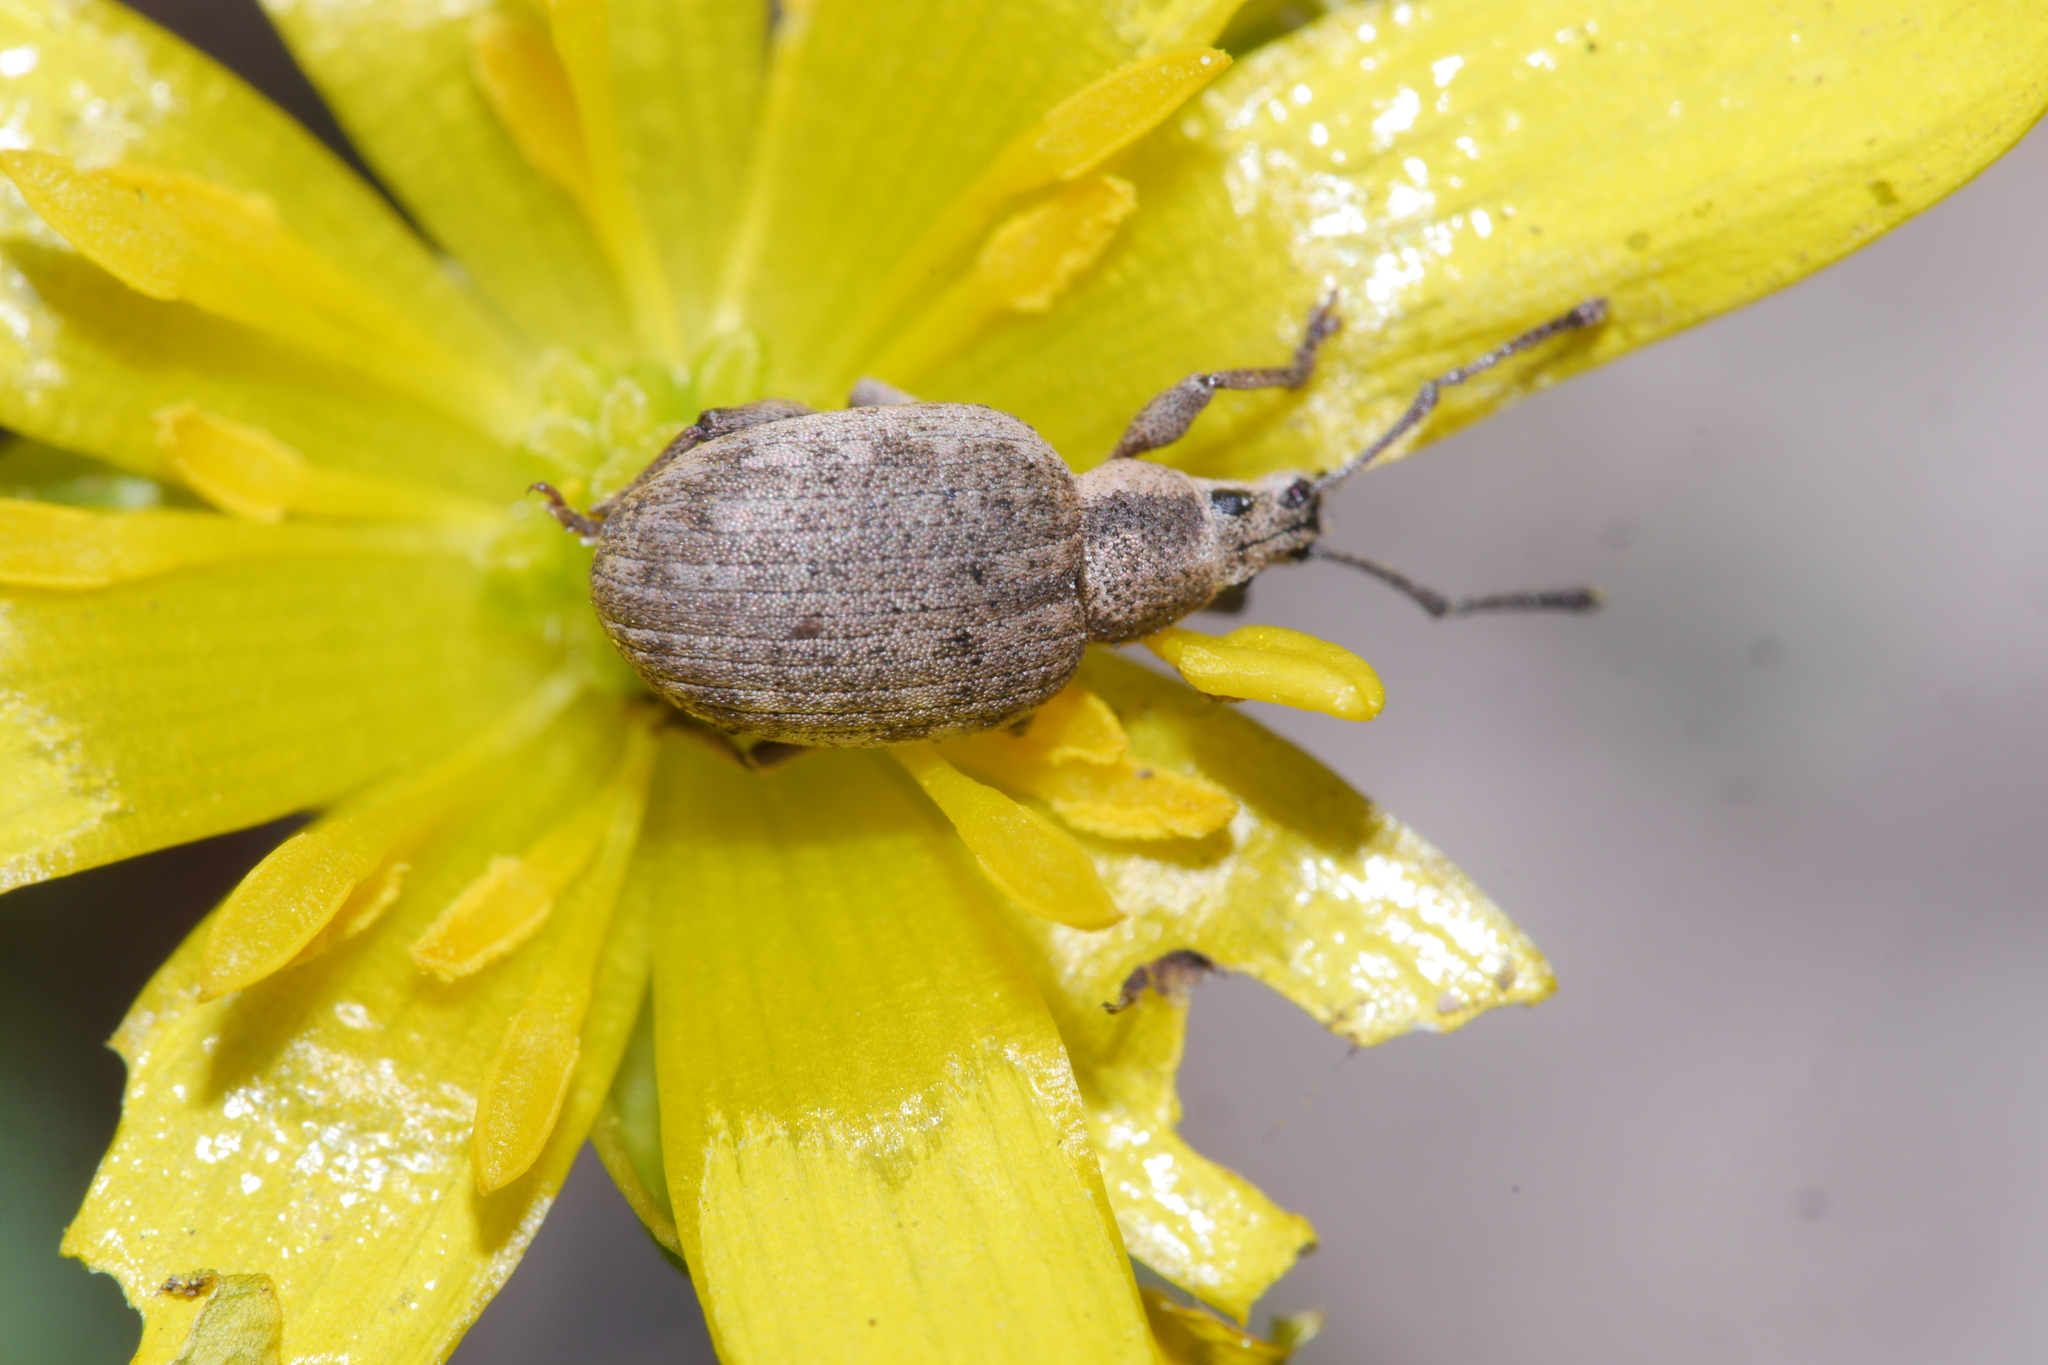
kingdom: Animalia
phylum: Arthropoda
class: Insecta
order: Coleoptera
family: Curculionidae
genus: Peritelus
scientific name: Peritelus sphaeroides
